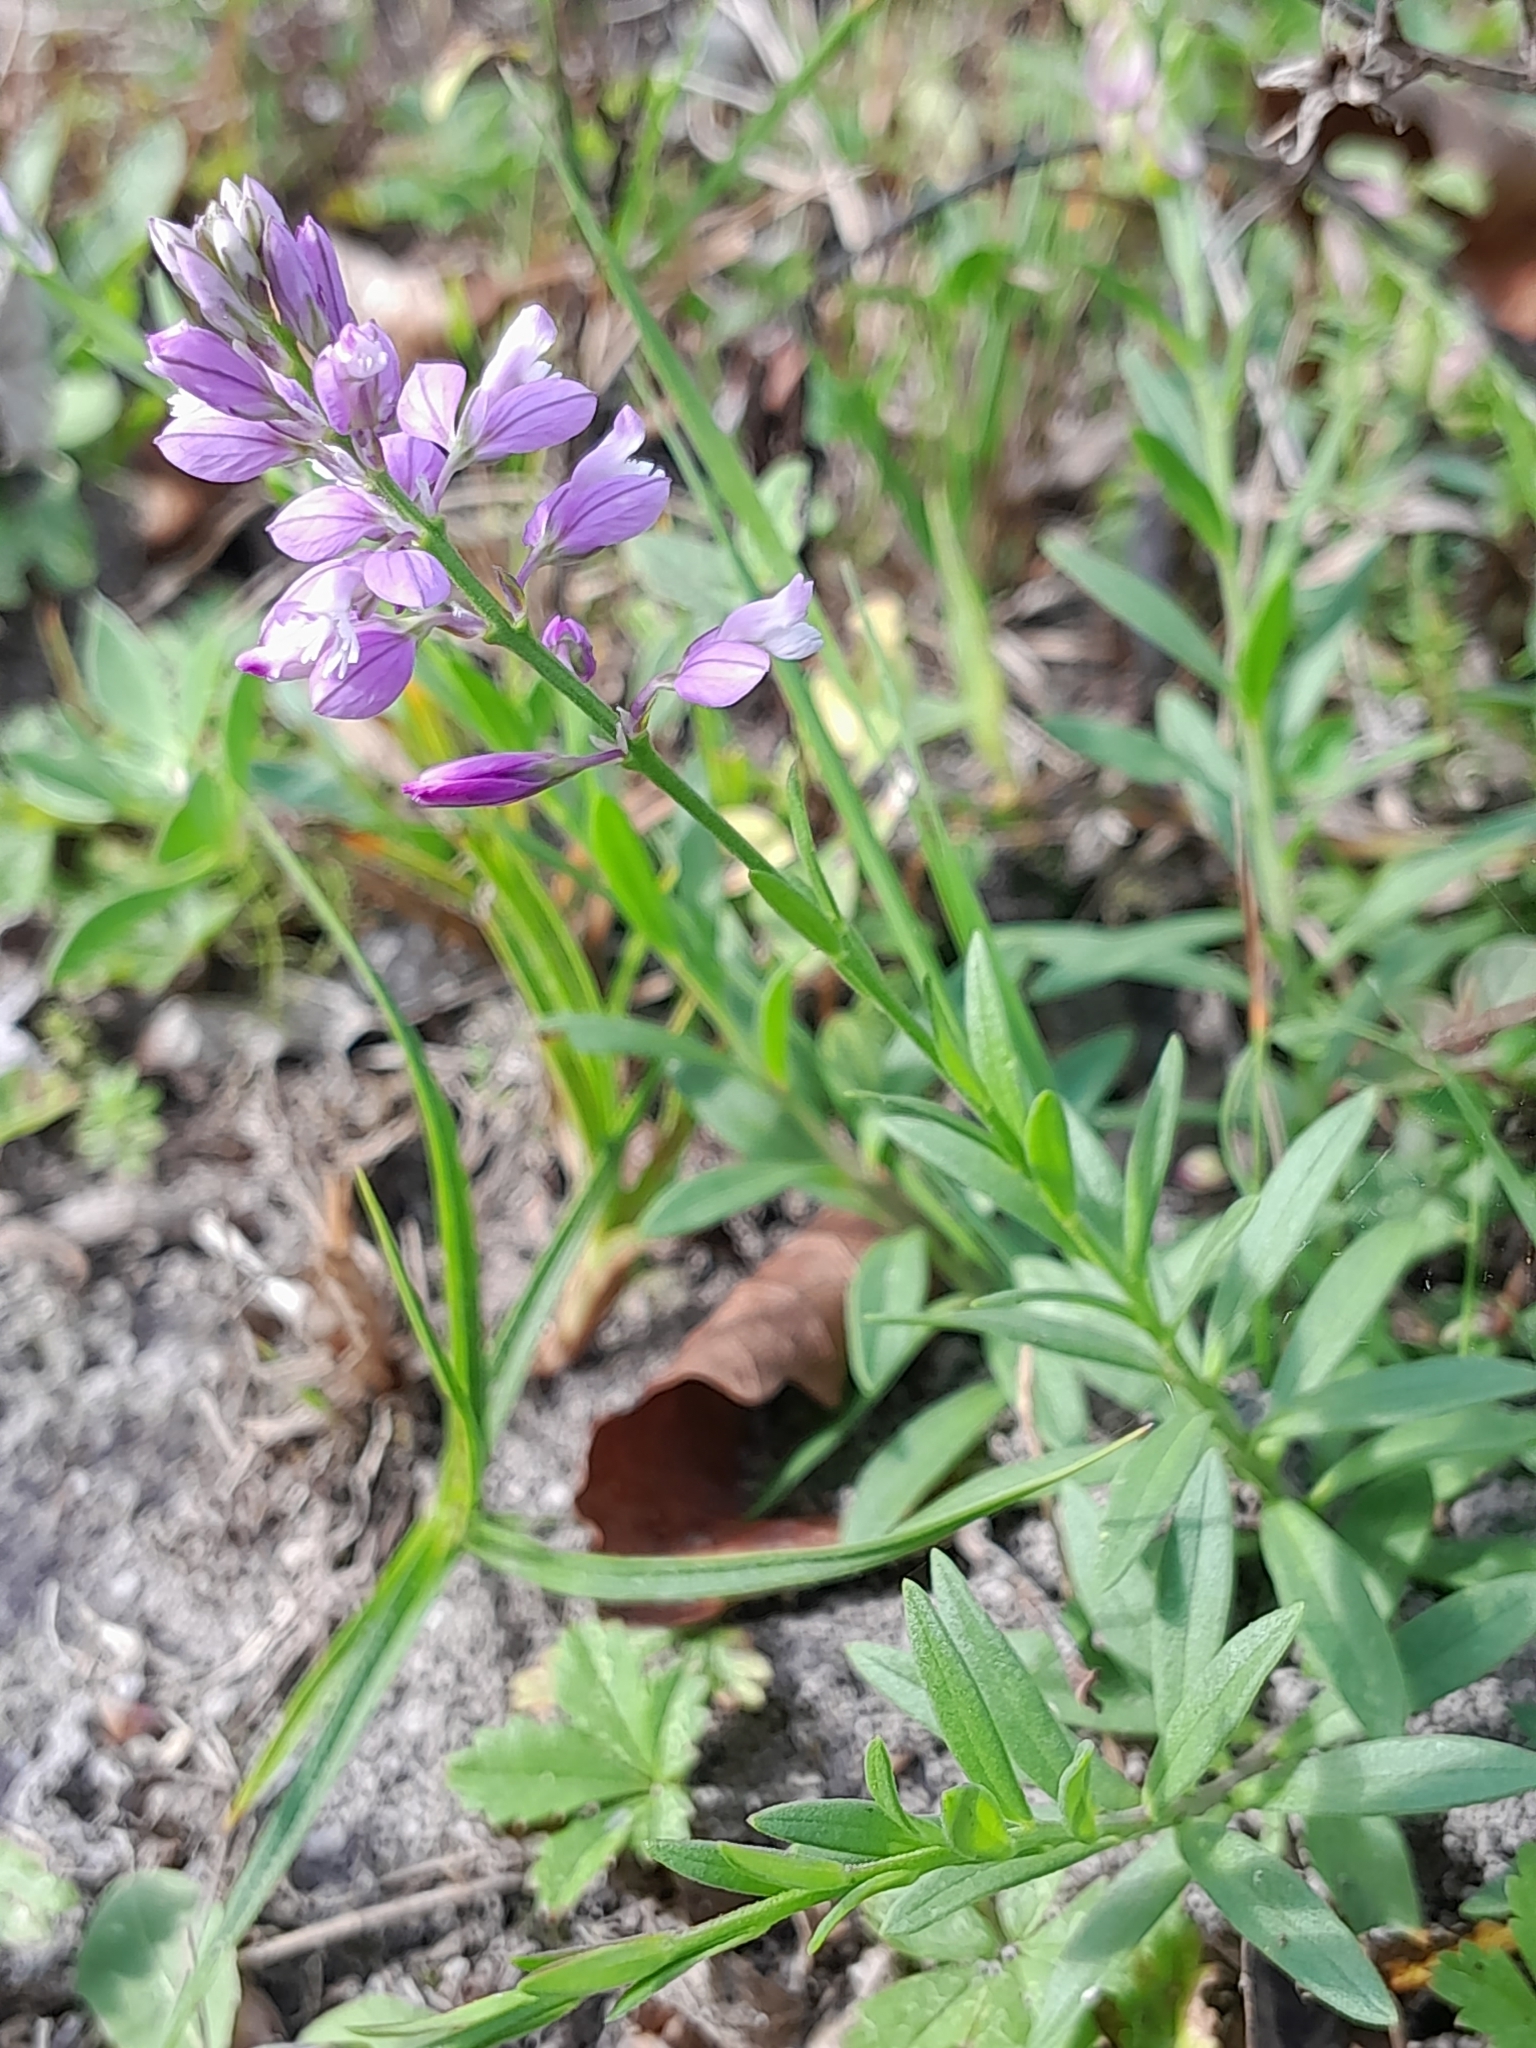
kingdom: Plantae
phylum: Tracheophyta
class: Magnoliopsida
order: Fabales
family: Polygalaceae
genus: Polygala
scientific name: Polygala comosa
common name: Tufted milkwort
